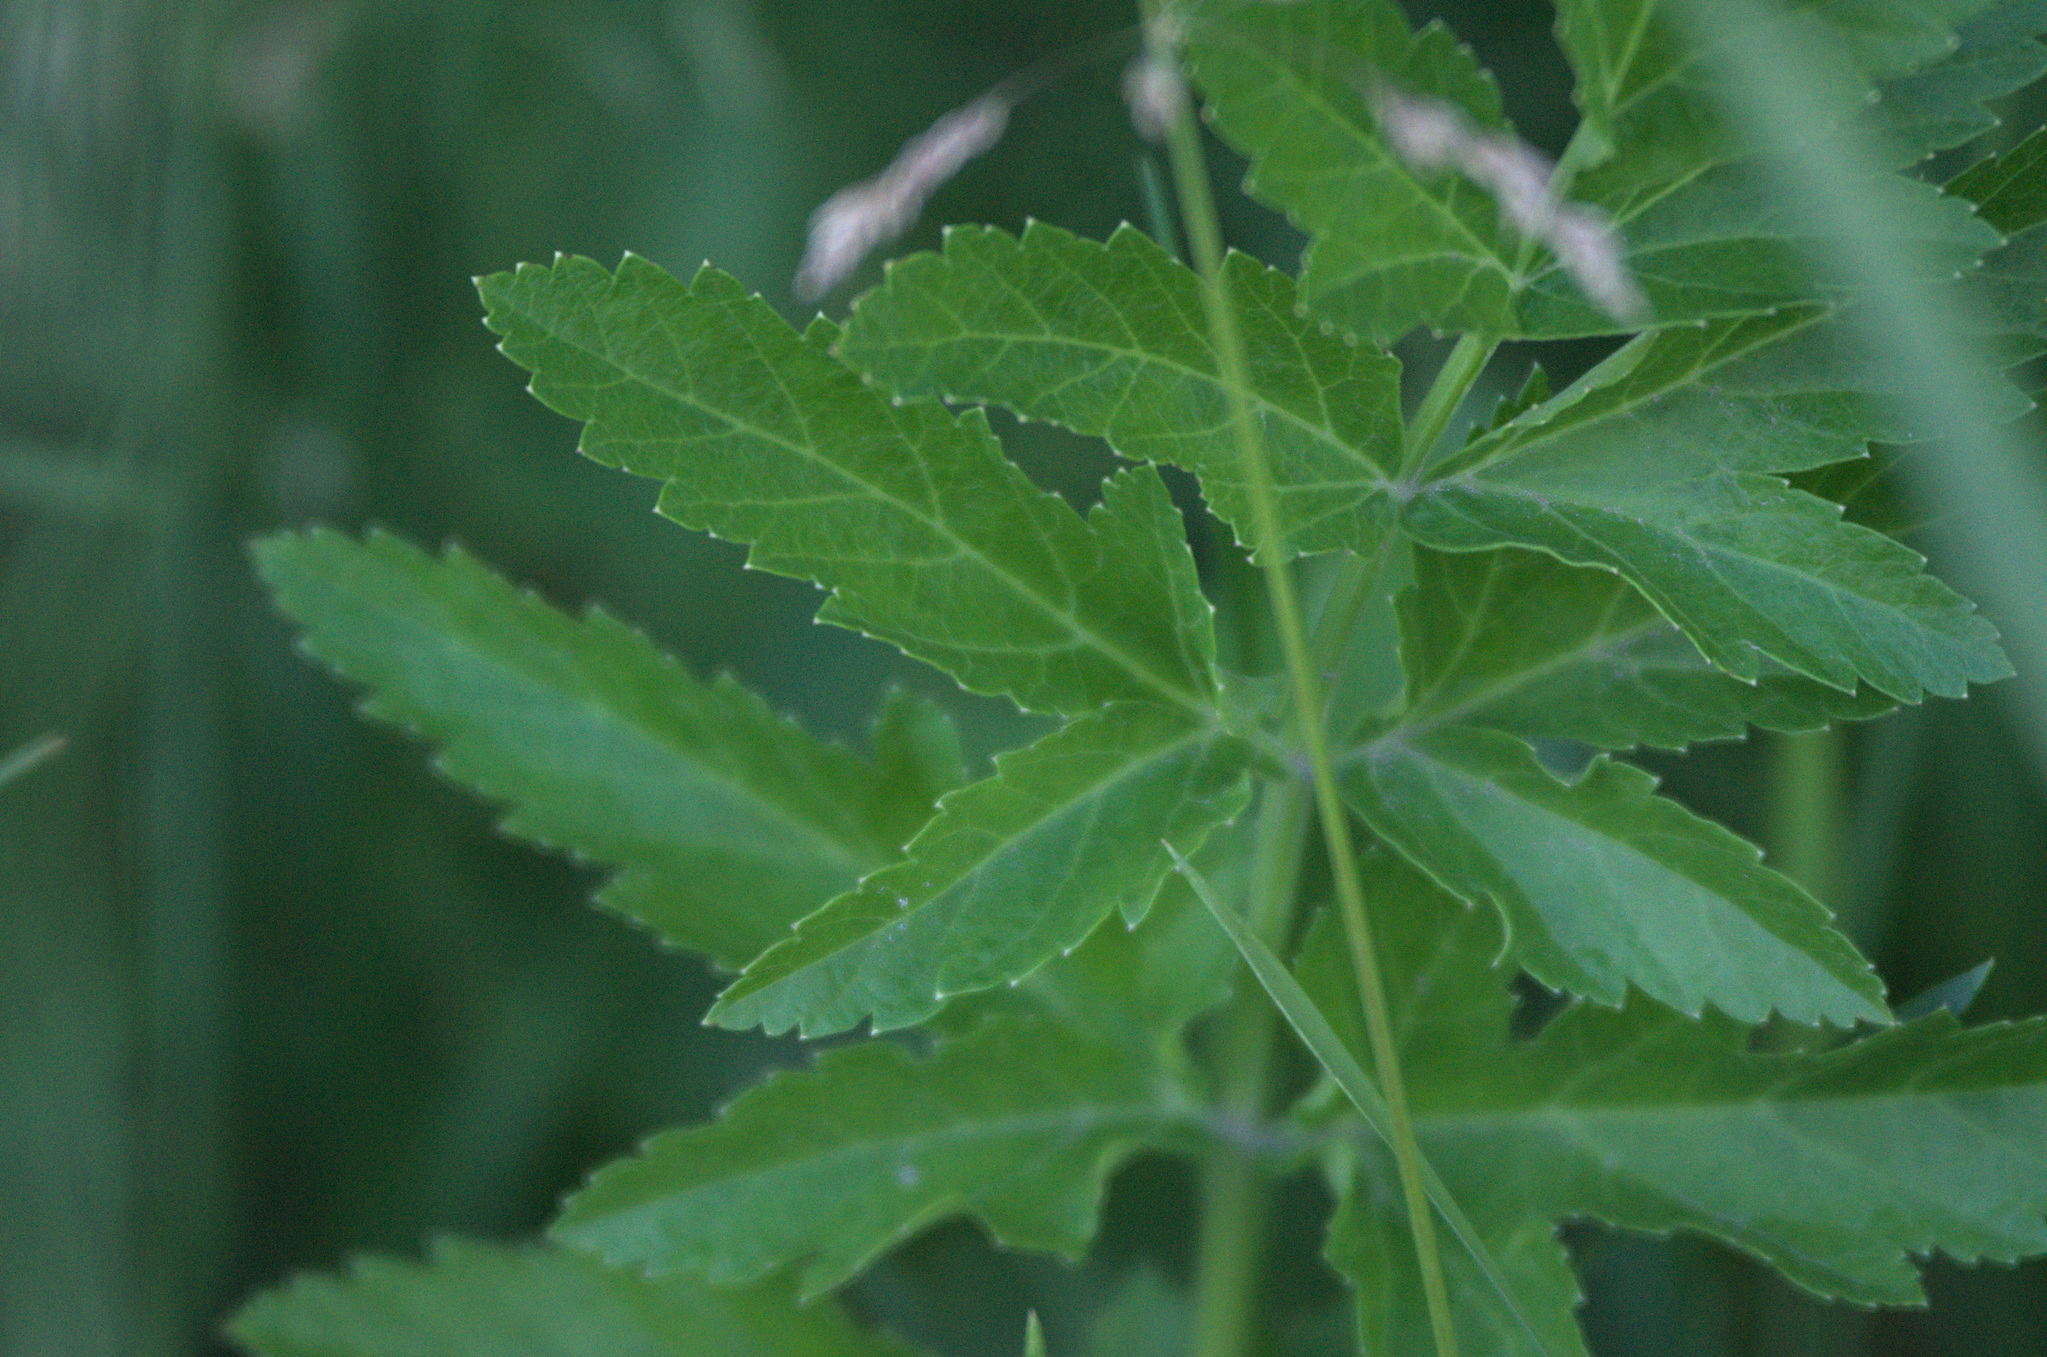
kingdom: Plantae
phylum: Tracheophyta
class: Magnoliopsida
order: Apiales
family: Apiaceae
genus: Pastinaca
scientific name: Pastinaca sativa
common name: Wild parsnip
